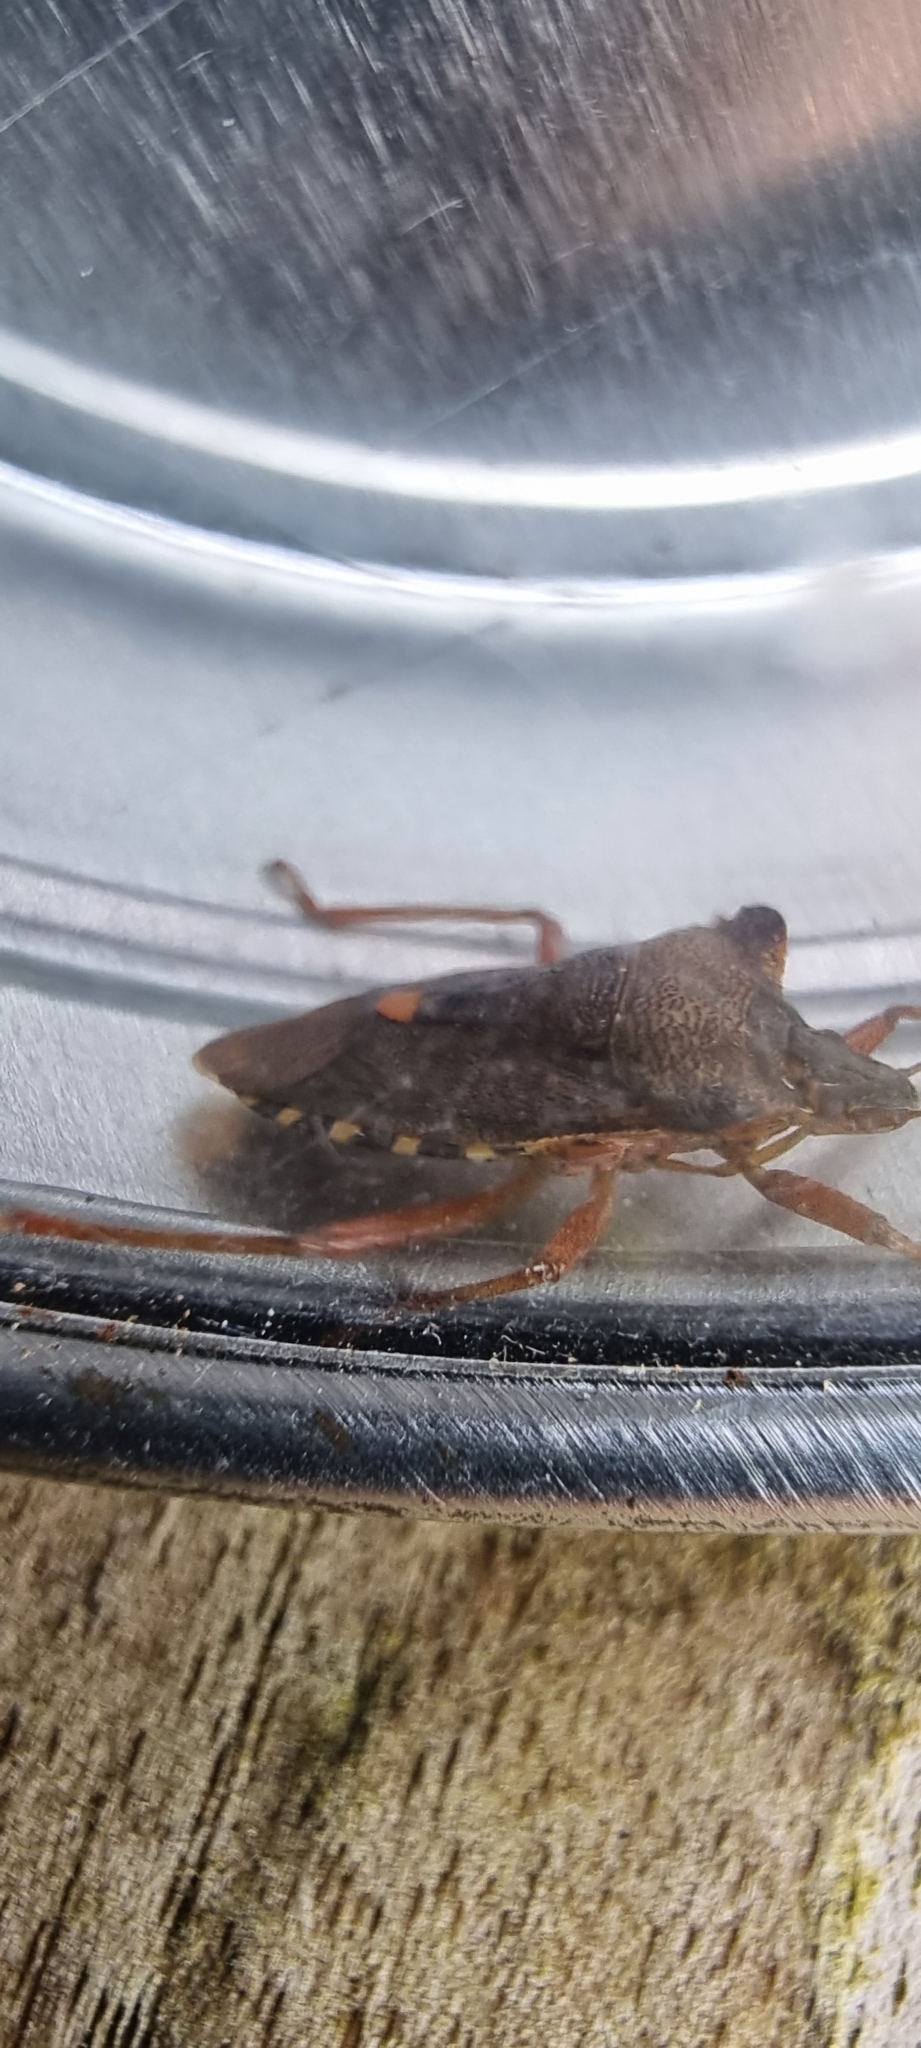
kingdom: Animalia
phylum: Arthropoda
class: Insecta
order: Hemiptera
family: Pentatomidae
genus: Pentatoma
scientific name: Pentatoma rufipes
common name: Forest bug
